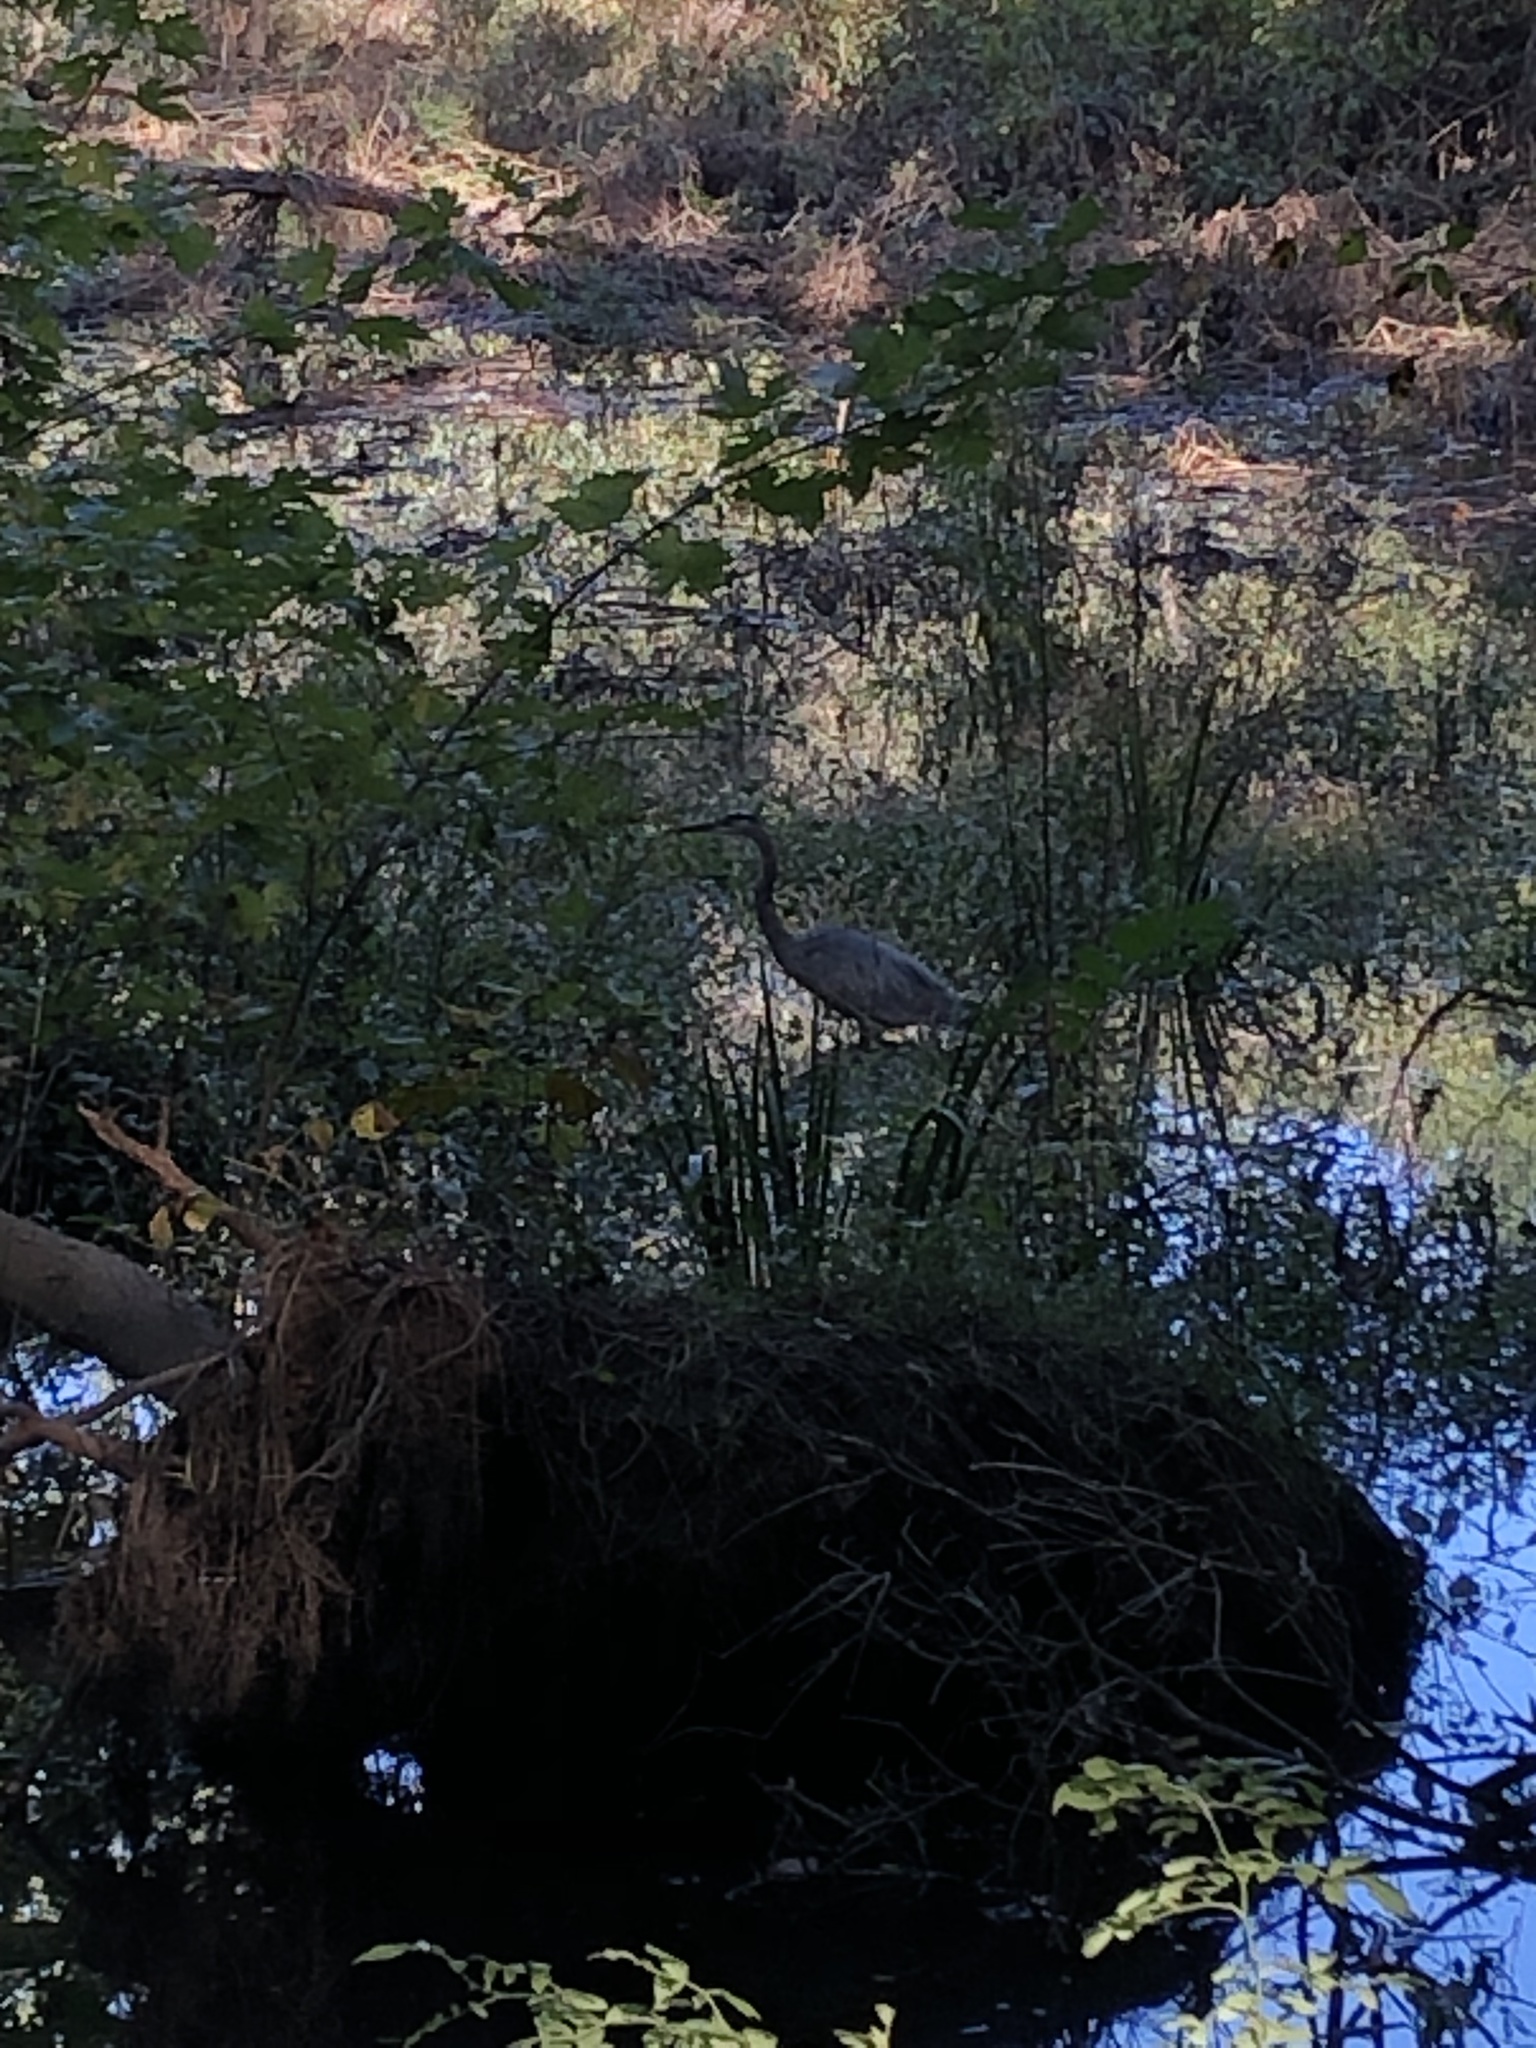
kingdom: Animalia
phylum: Chordata
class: Aves
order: Pelecaniformes
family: Ardeidae
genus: Ardea
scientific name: Ardea herodias
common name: Great blue heron
